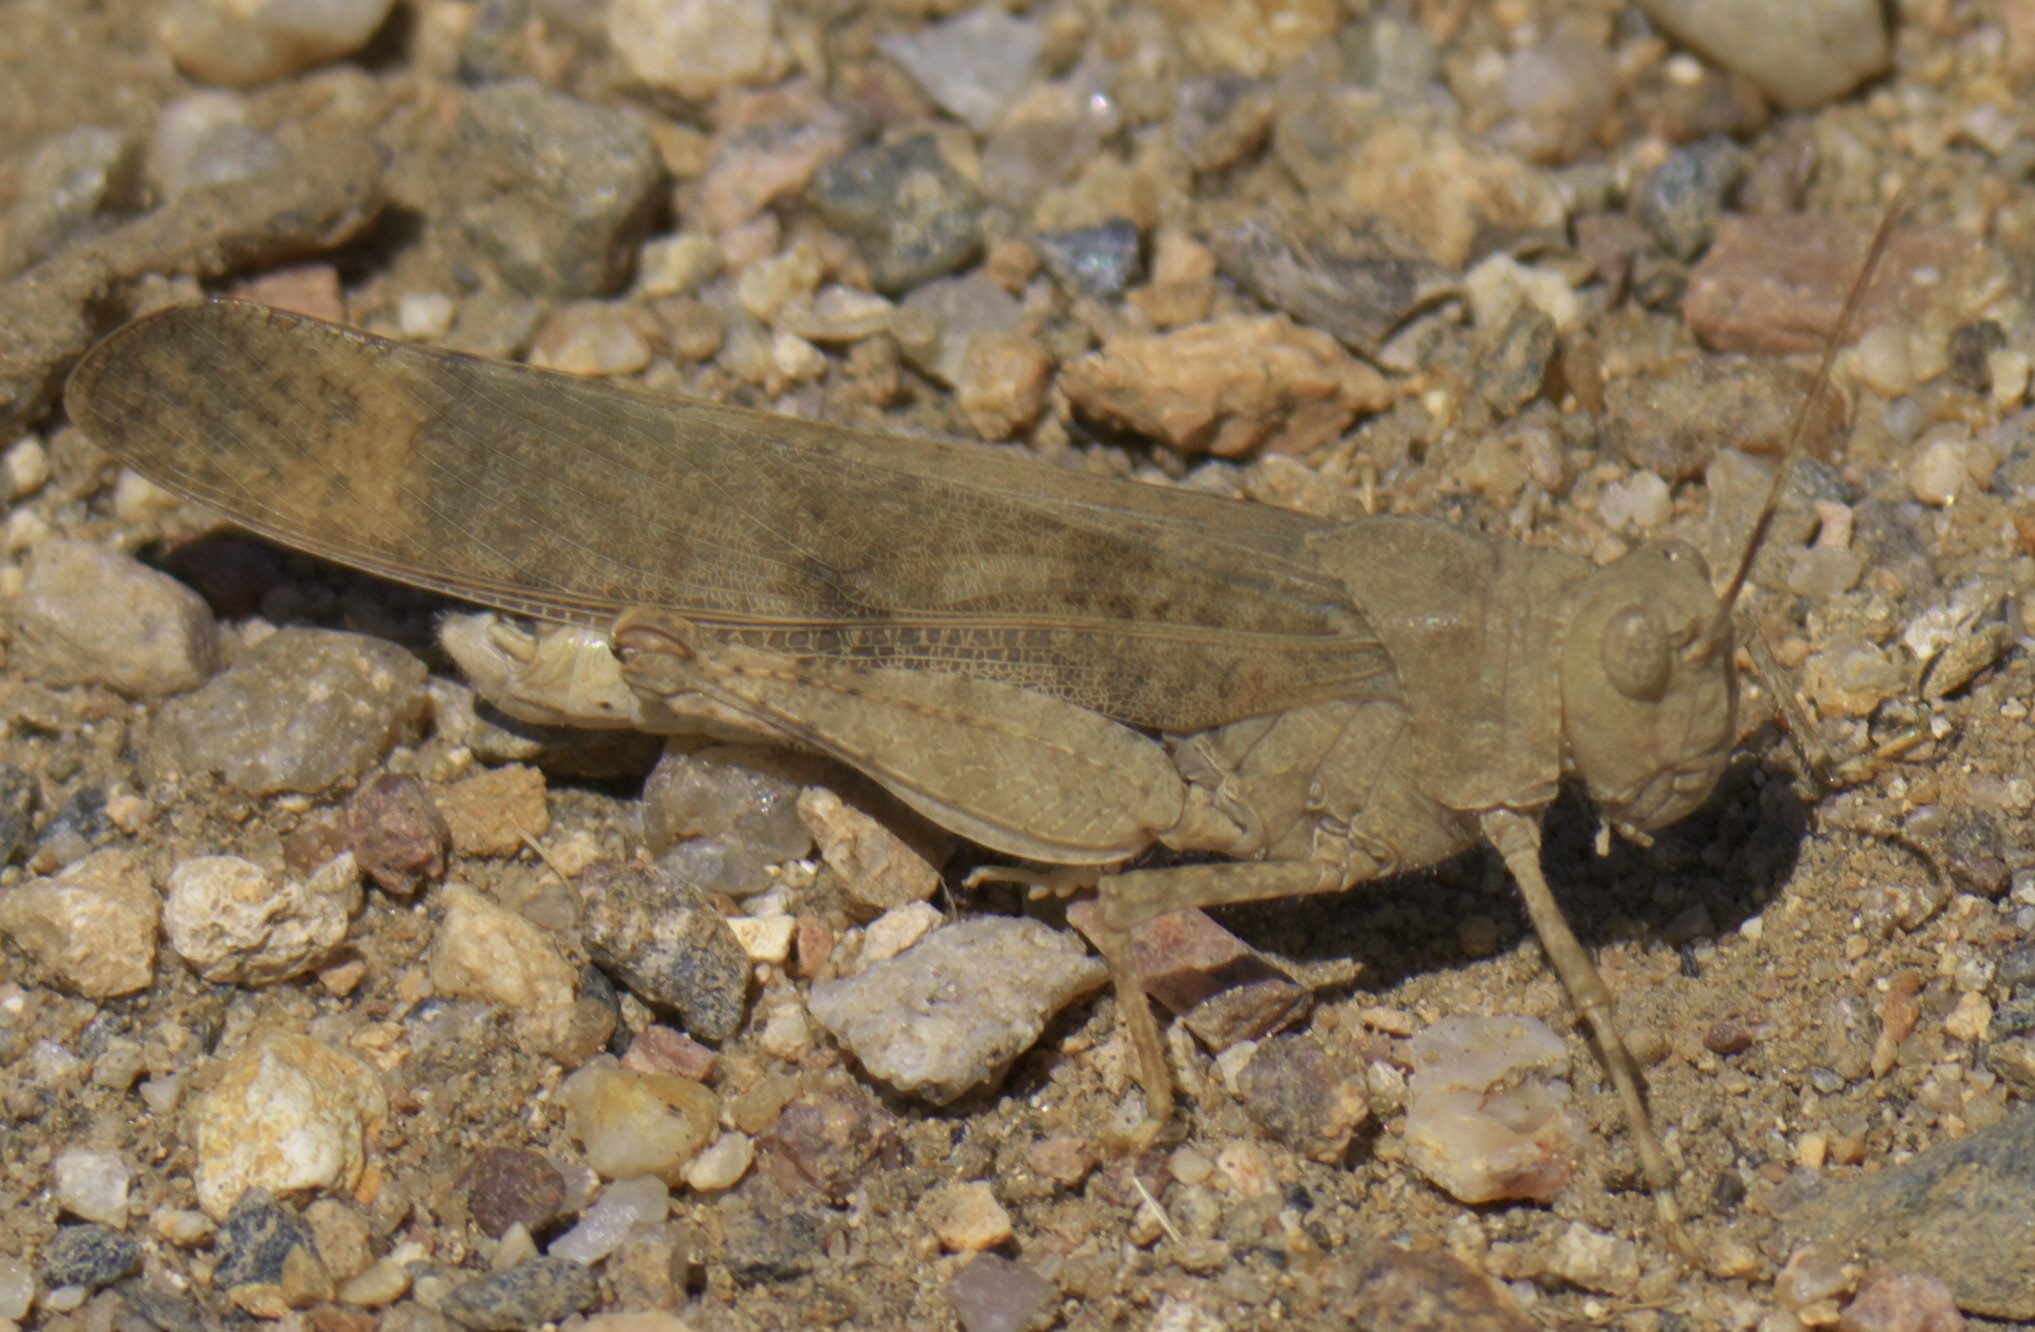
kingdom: Animalia
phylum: Arthropoda
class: Insecta
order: Orthoptera
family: Acrididae
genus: Dissosteira
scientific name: Dissosteira carolina
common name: Carolina grasshopper
